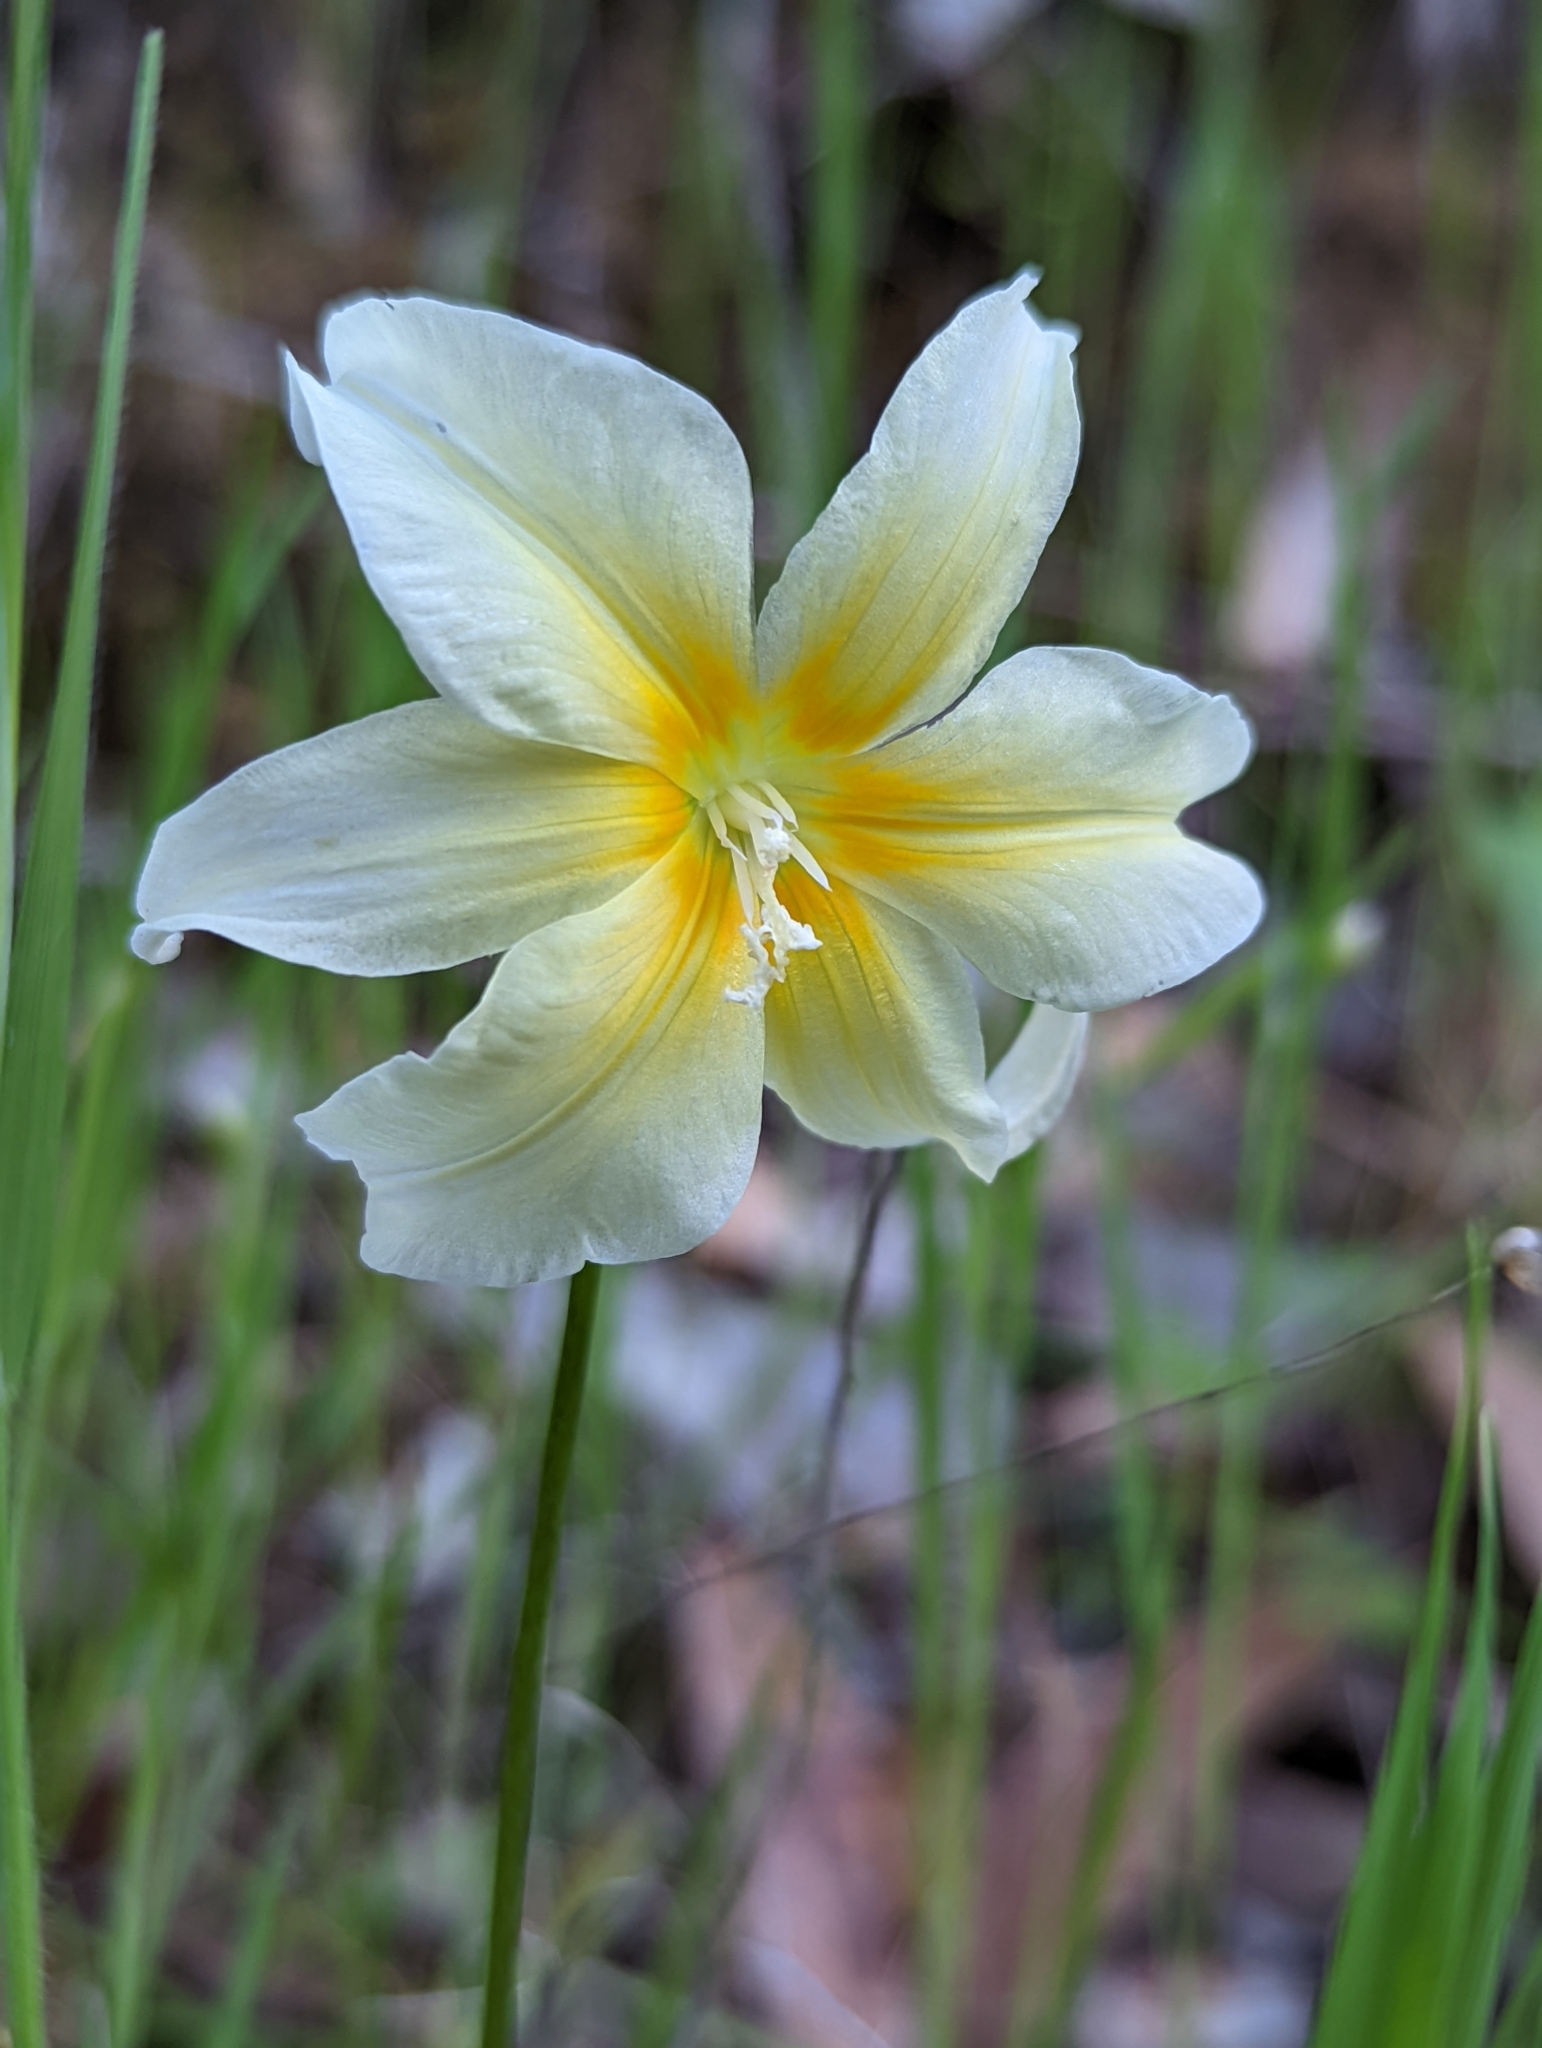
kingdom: Plantae
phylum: Tracheophyta
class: Liliopsida
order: Liliales
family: Liliaceae
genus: Erythronium
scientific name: Erythronium californicum
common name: Fawn-lily
